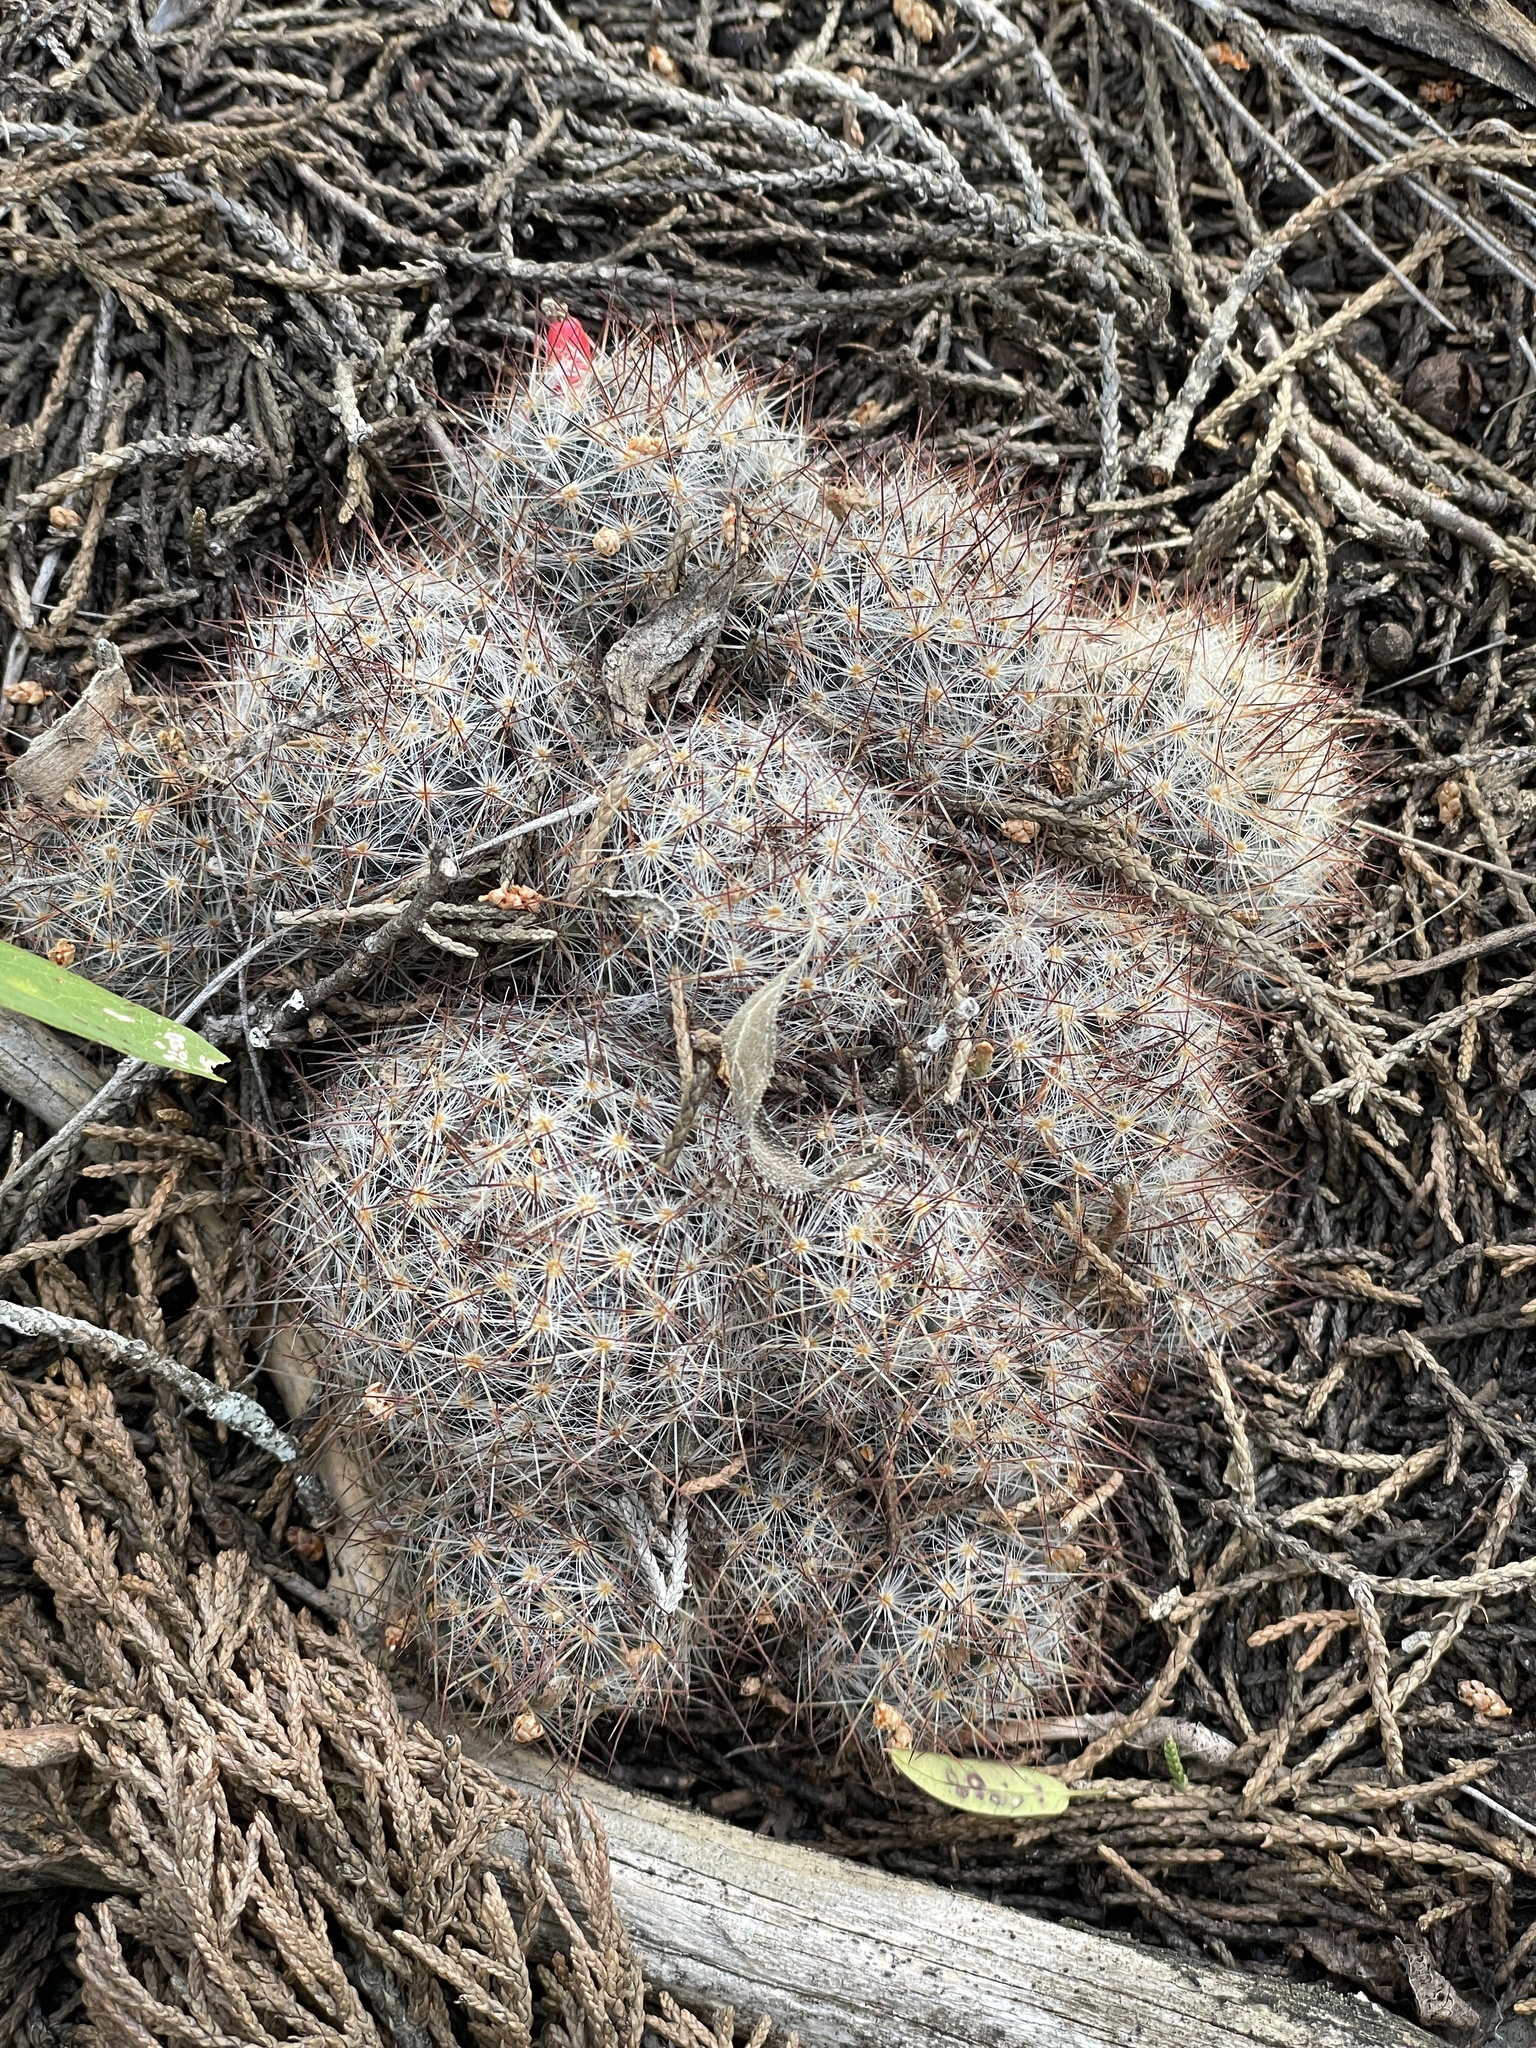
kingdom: Plantae
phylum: Tracheophyta
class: Magnoliopsida
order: Caryophyllales
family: Cactaceae
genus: Mammillaria
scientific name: Mammillaria prolifera
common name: Texas nipple cactus
